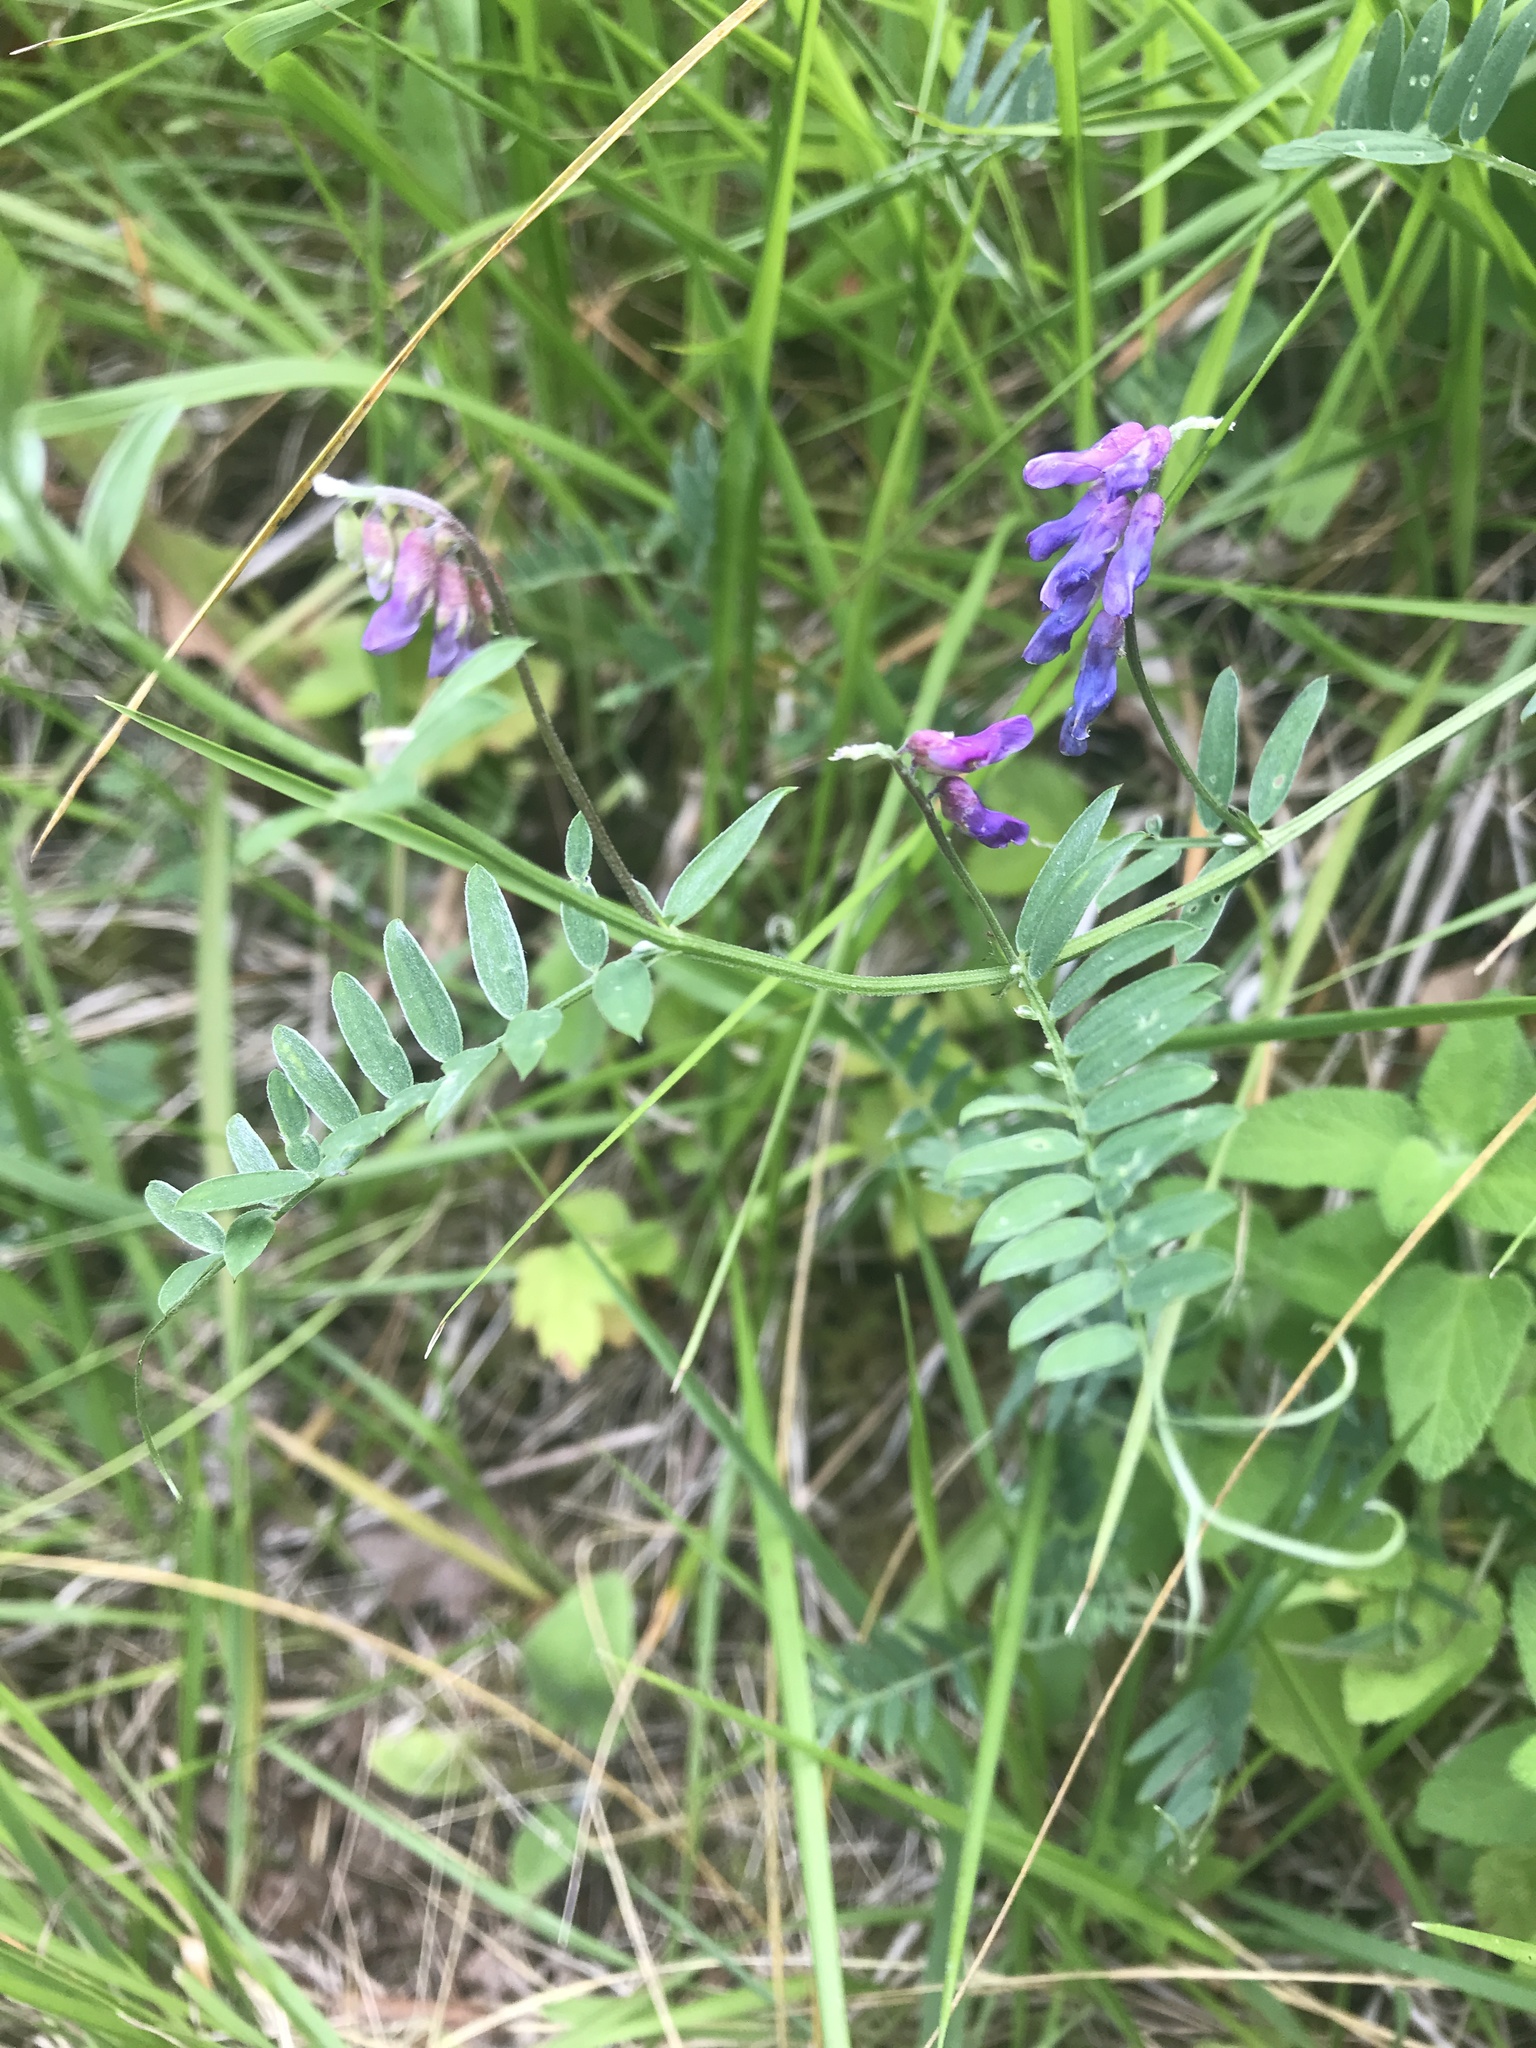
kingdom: Plantae
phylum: Tracheophyta
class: Magnoliopsida
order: Fabales
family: Fabaceae
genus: Vicia
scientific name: Vicia cracca
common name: Bird vetch
